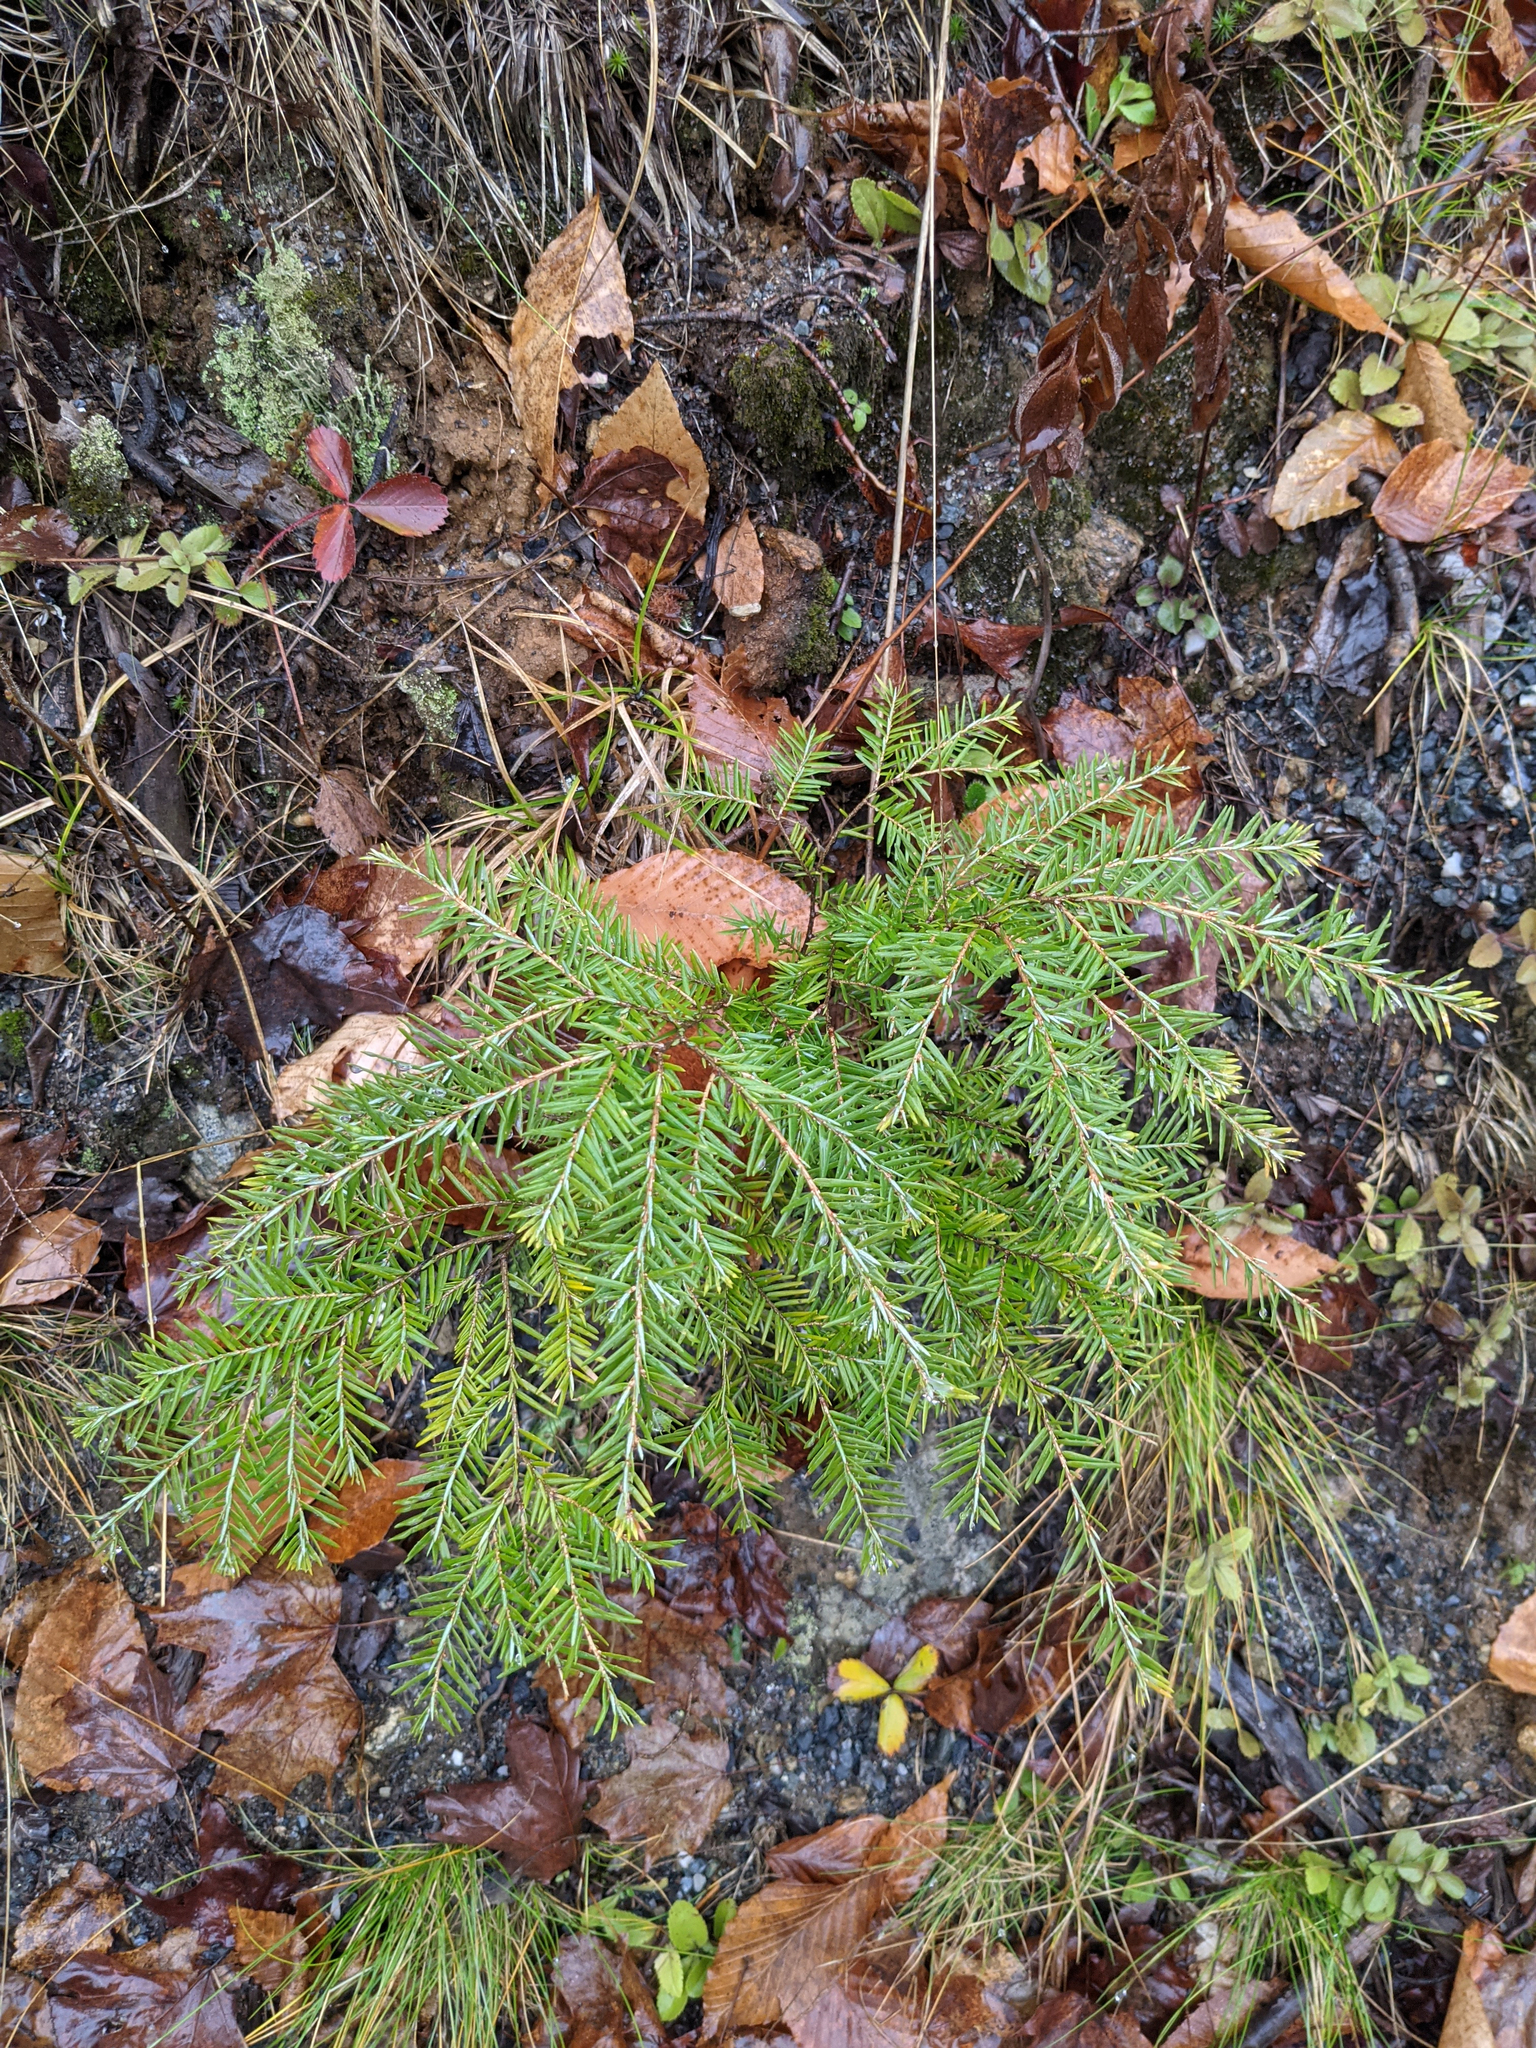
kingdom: Plantae
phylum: Tracheophyta
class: Pinopsida
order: Pinales
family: Pinaceae
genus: Tsuga
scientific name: Tsuga canadensis
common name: Eastern hemlock
